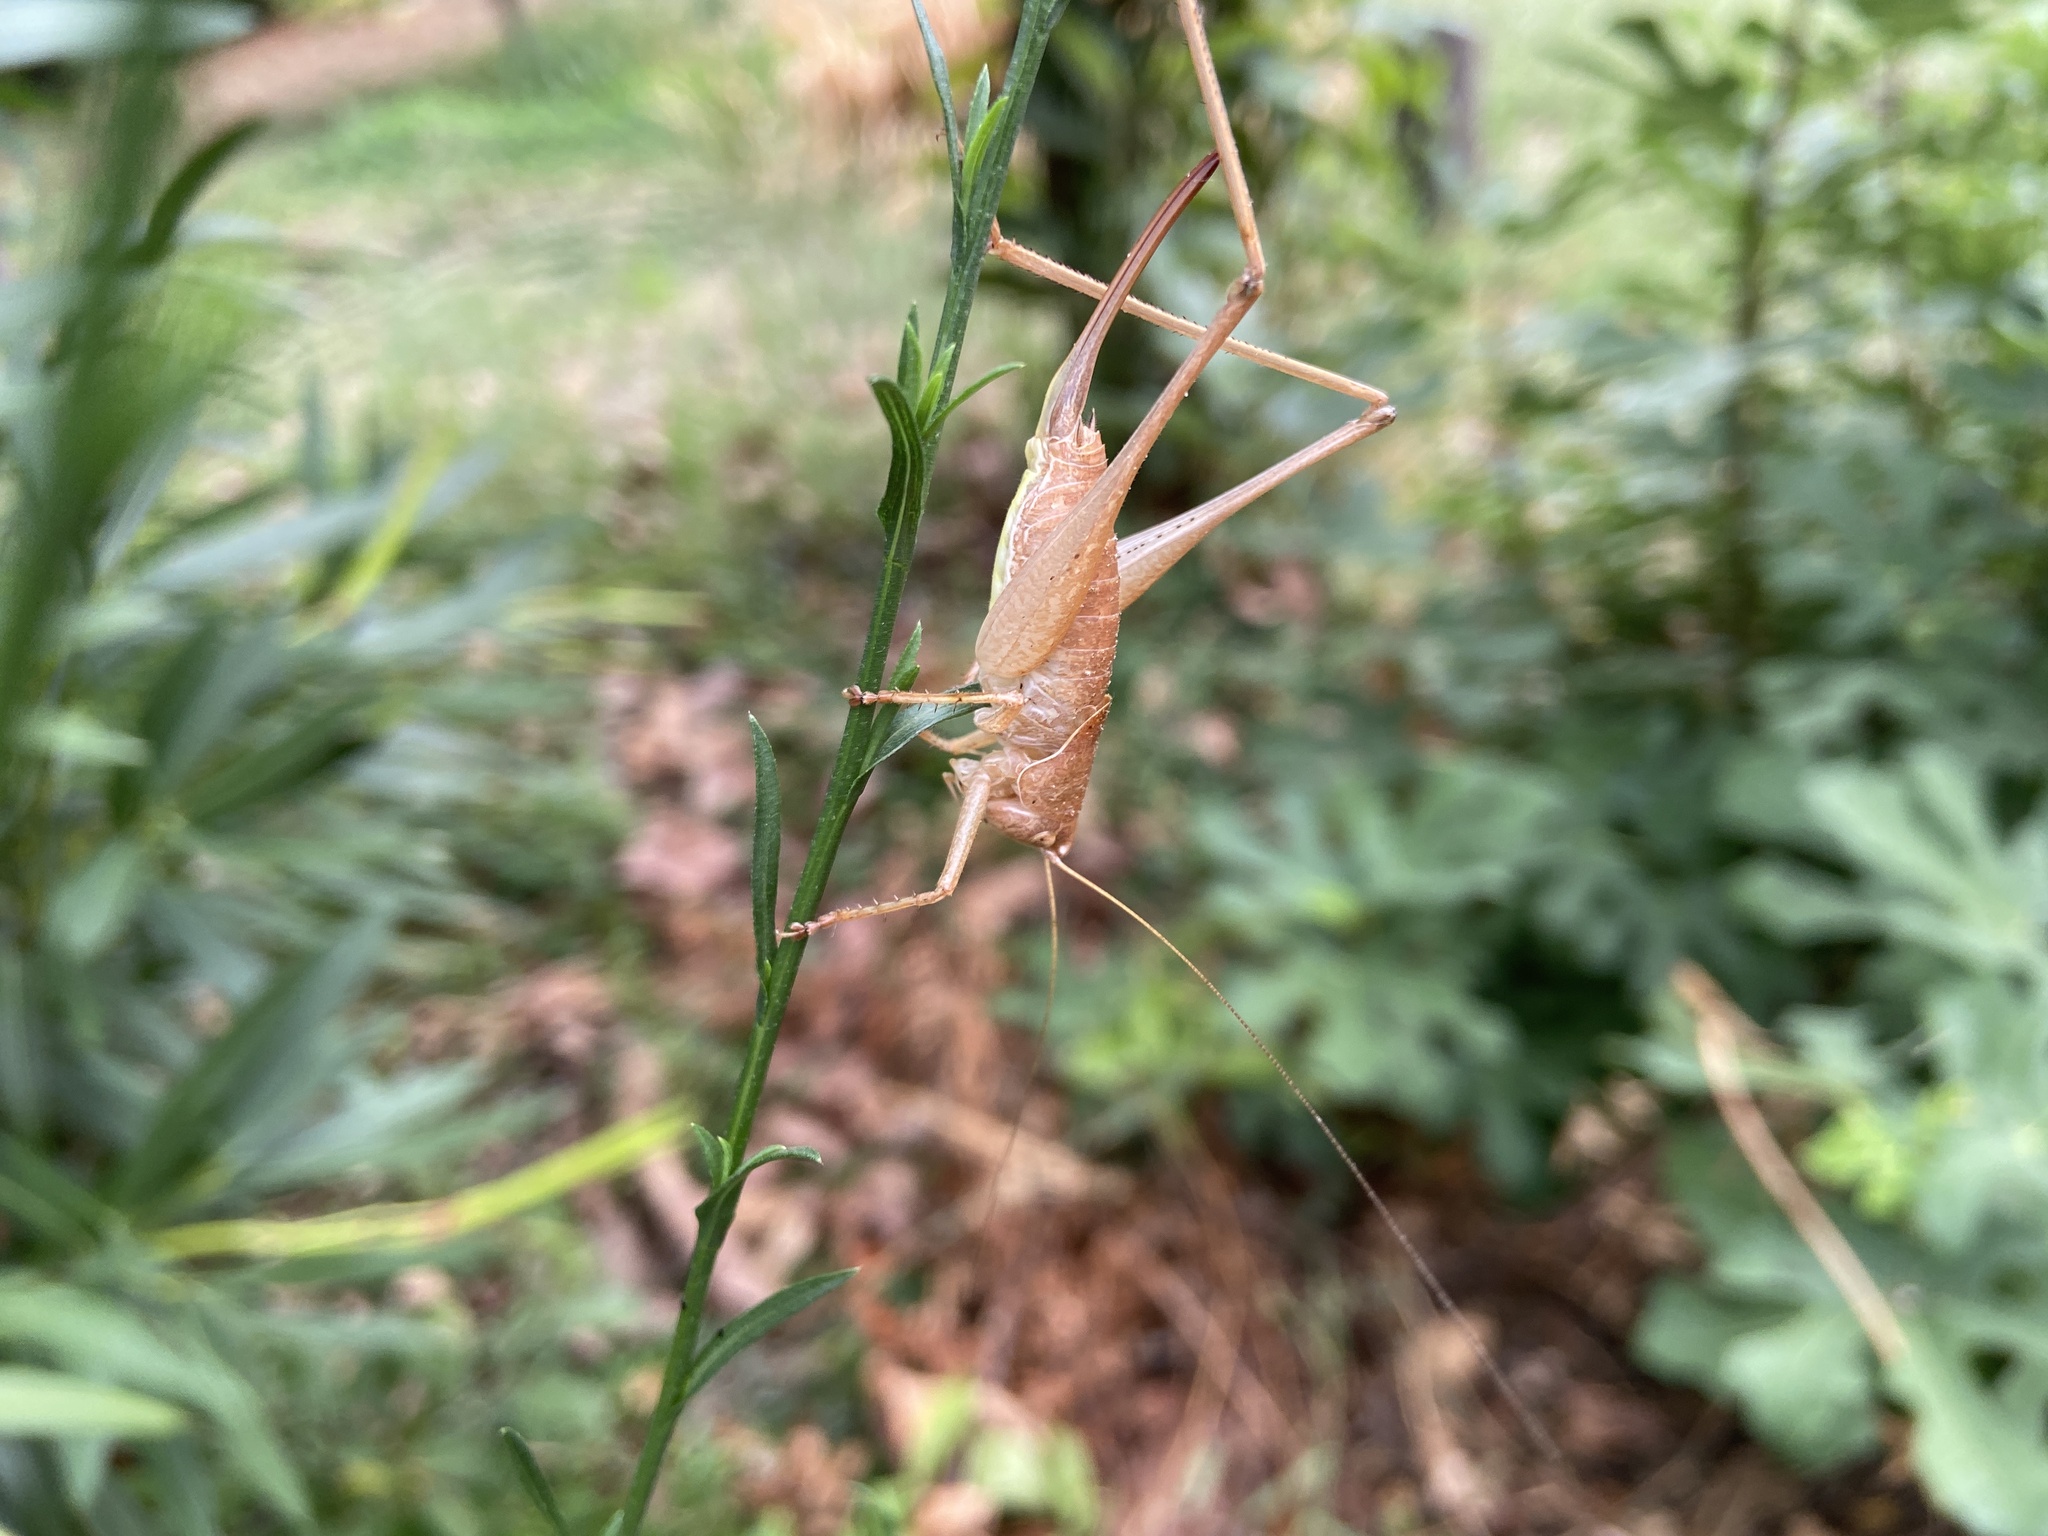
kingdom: Animalia
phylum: Arthropoda
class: Insecta
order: Orthoptera
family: Tettigoniidae
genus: Rhacocleis
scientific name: Rhacocleis germanica
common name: Mediterranean bush-cricket
